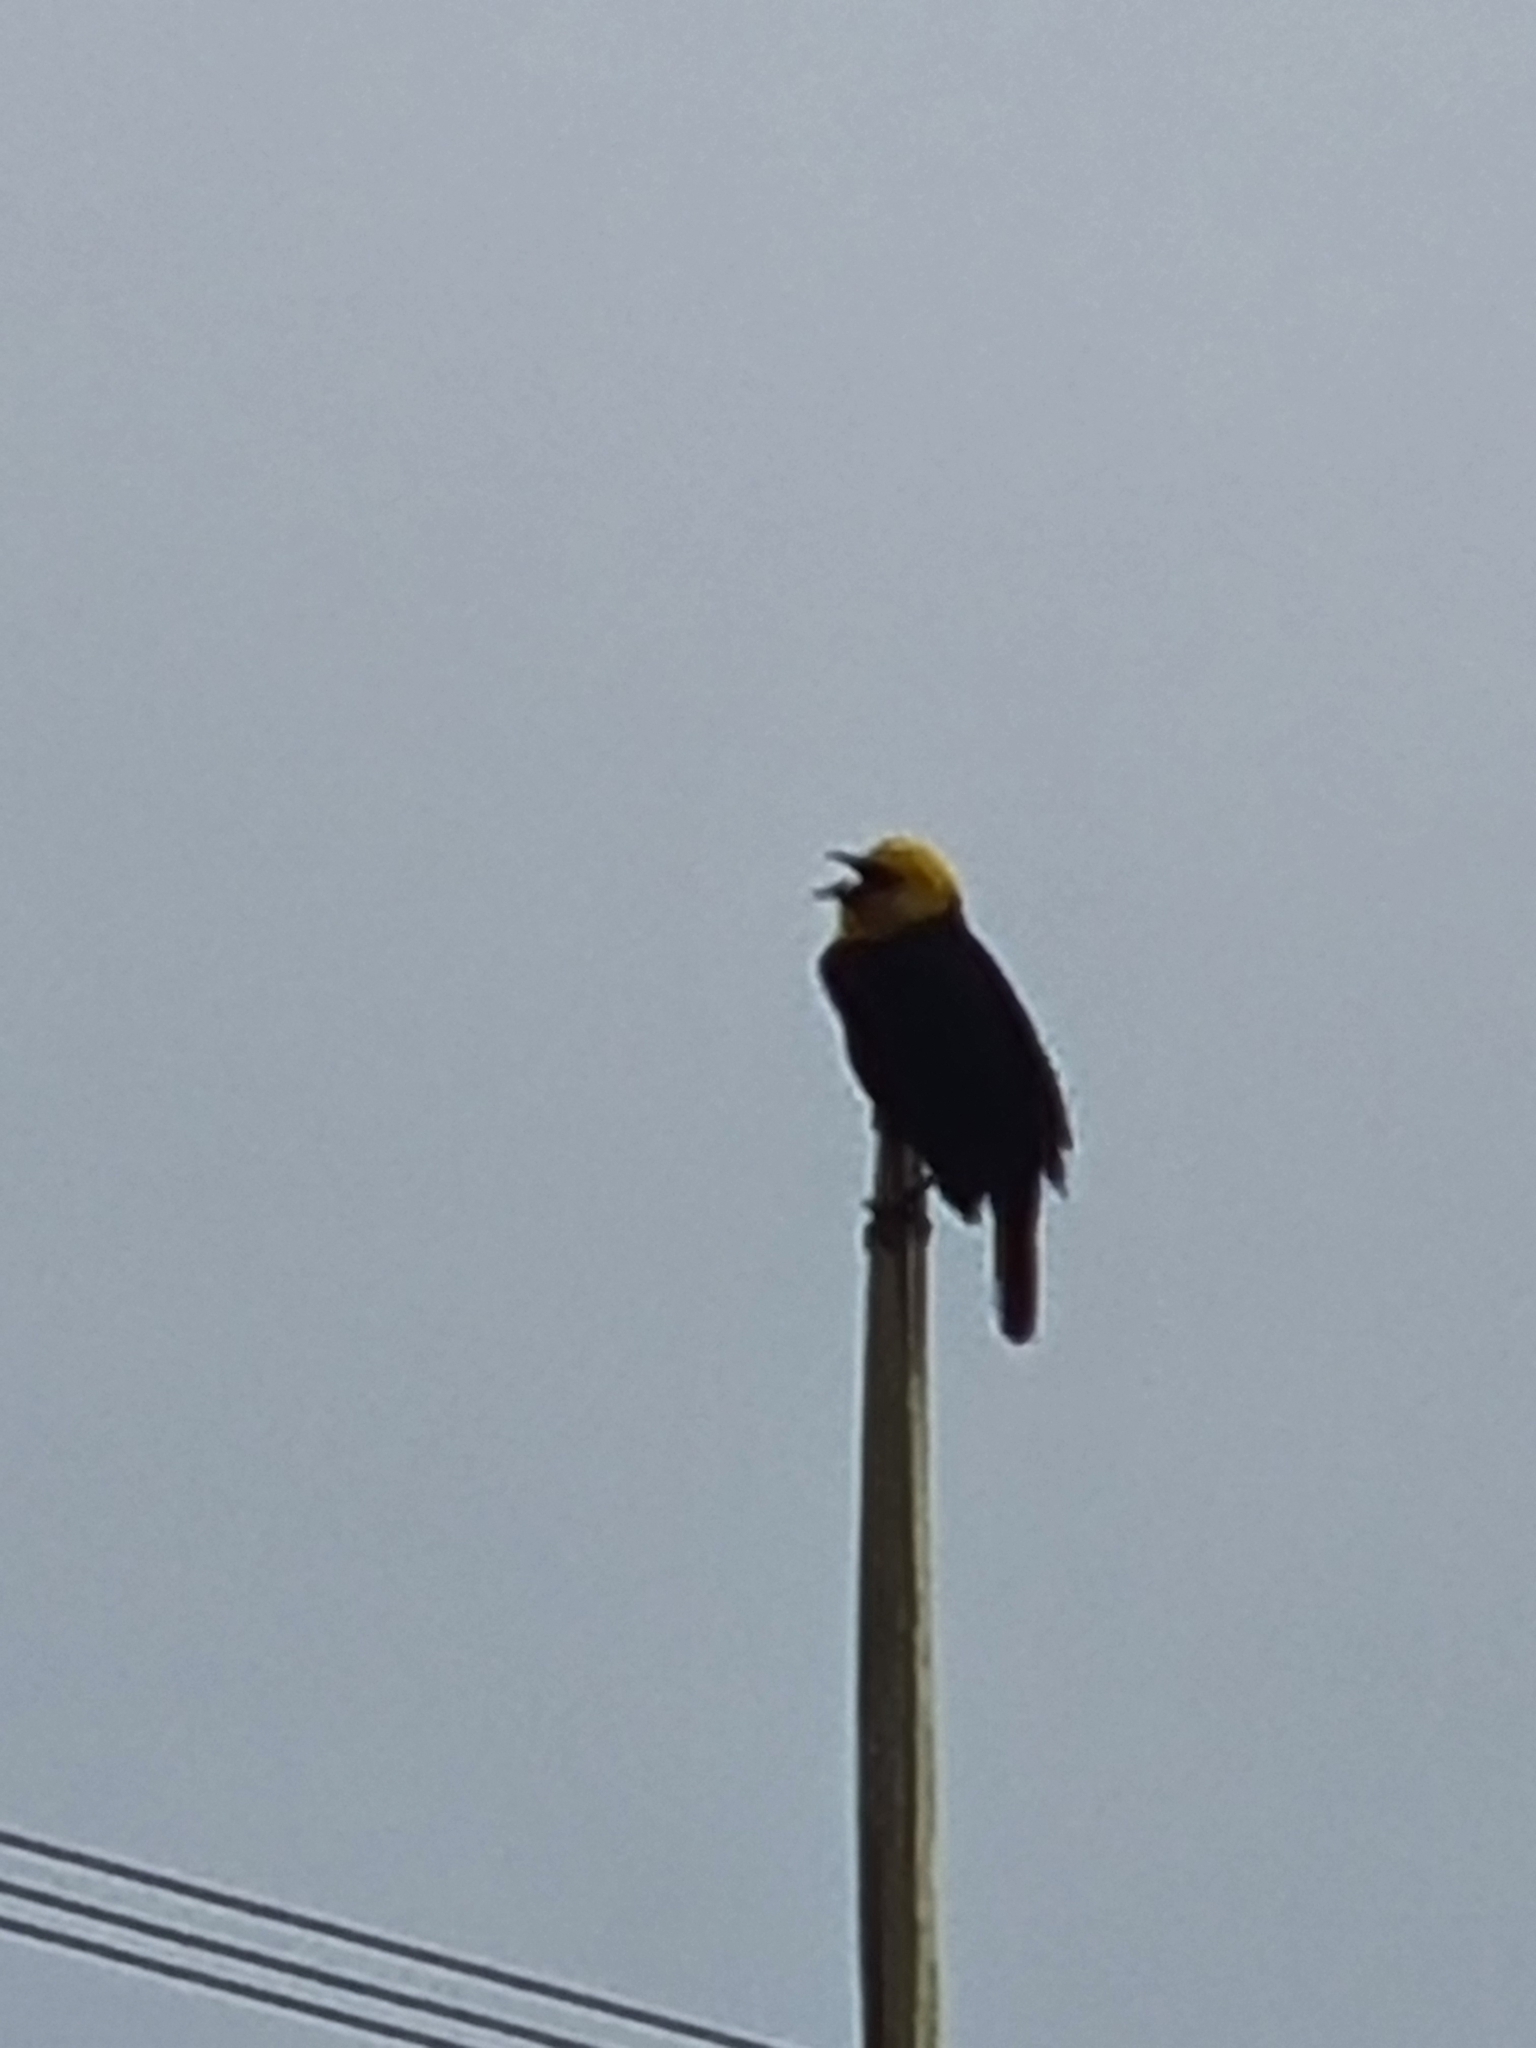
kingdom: Animalia
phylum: Chordata
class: Aves
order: Passeriformes
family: Icteridae
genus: Chrysomus
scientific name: Chrysomus icterocephalus
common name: Yellow-hooded blackbird
